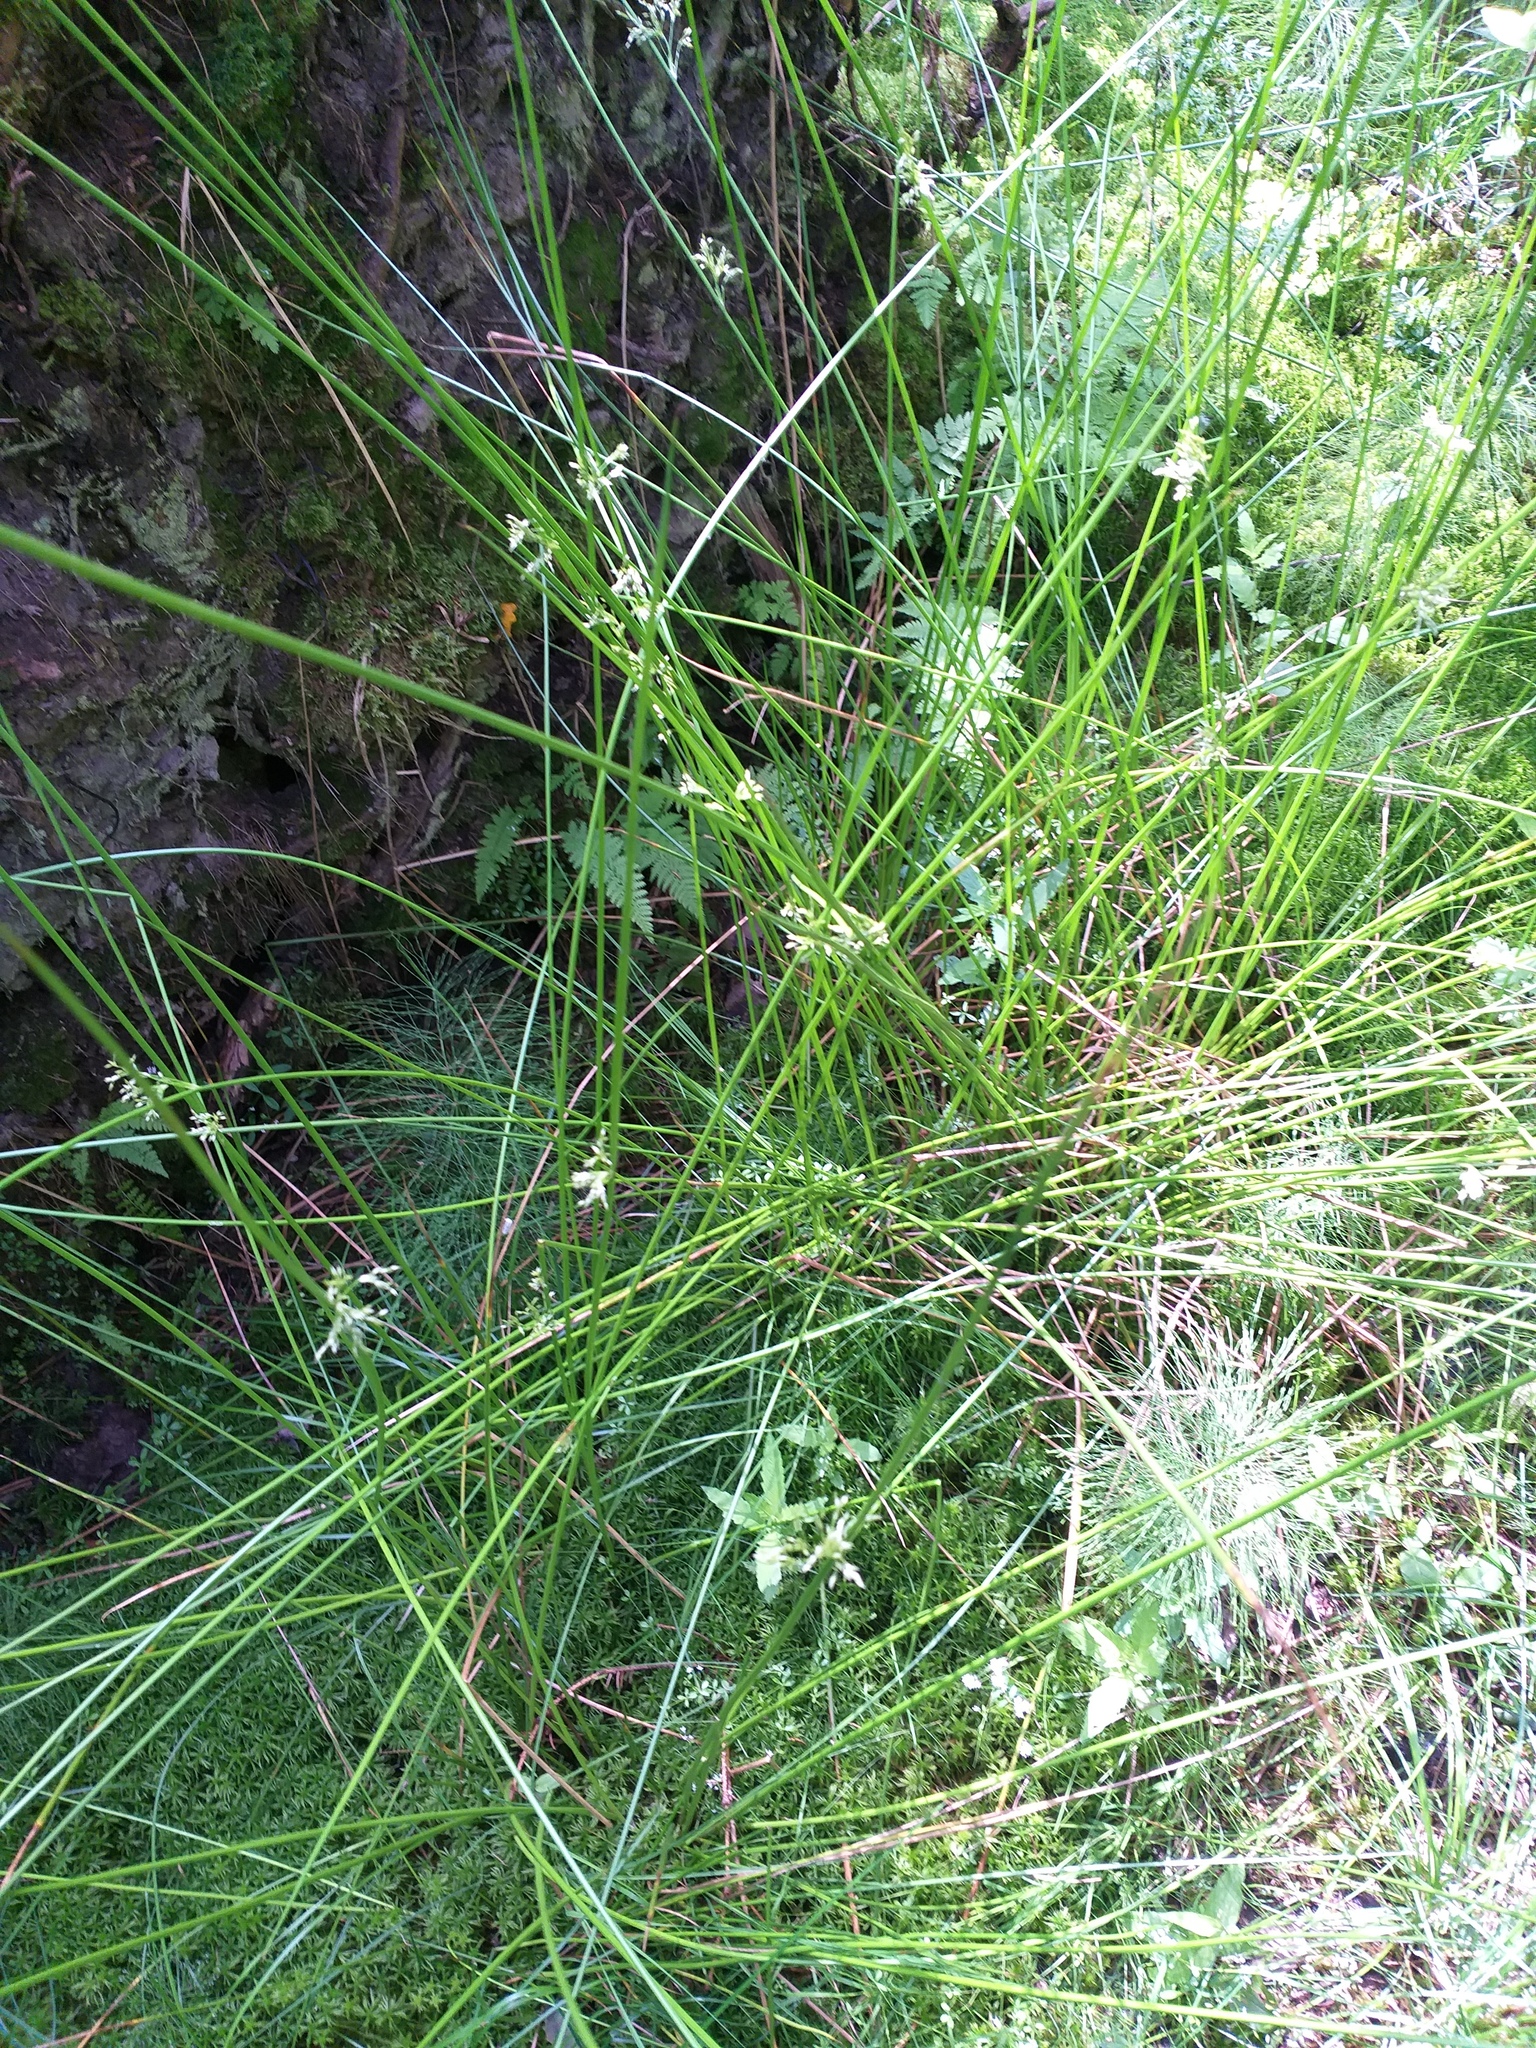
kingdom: Plantae
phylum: Tracheophyta
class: Liliopsida
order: Poales
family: Juncaceae
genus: Juncus
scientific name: Juncus effusus
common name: Soft rush
